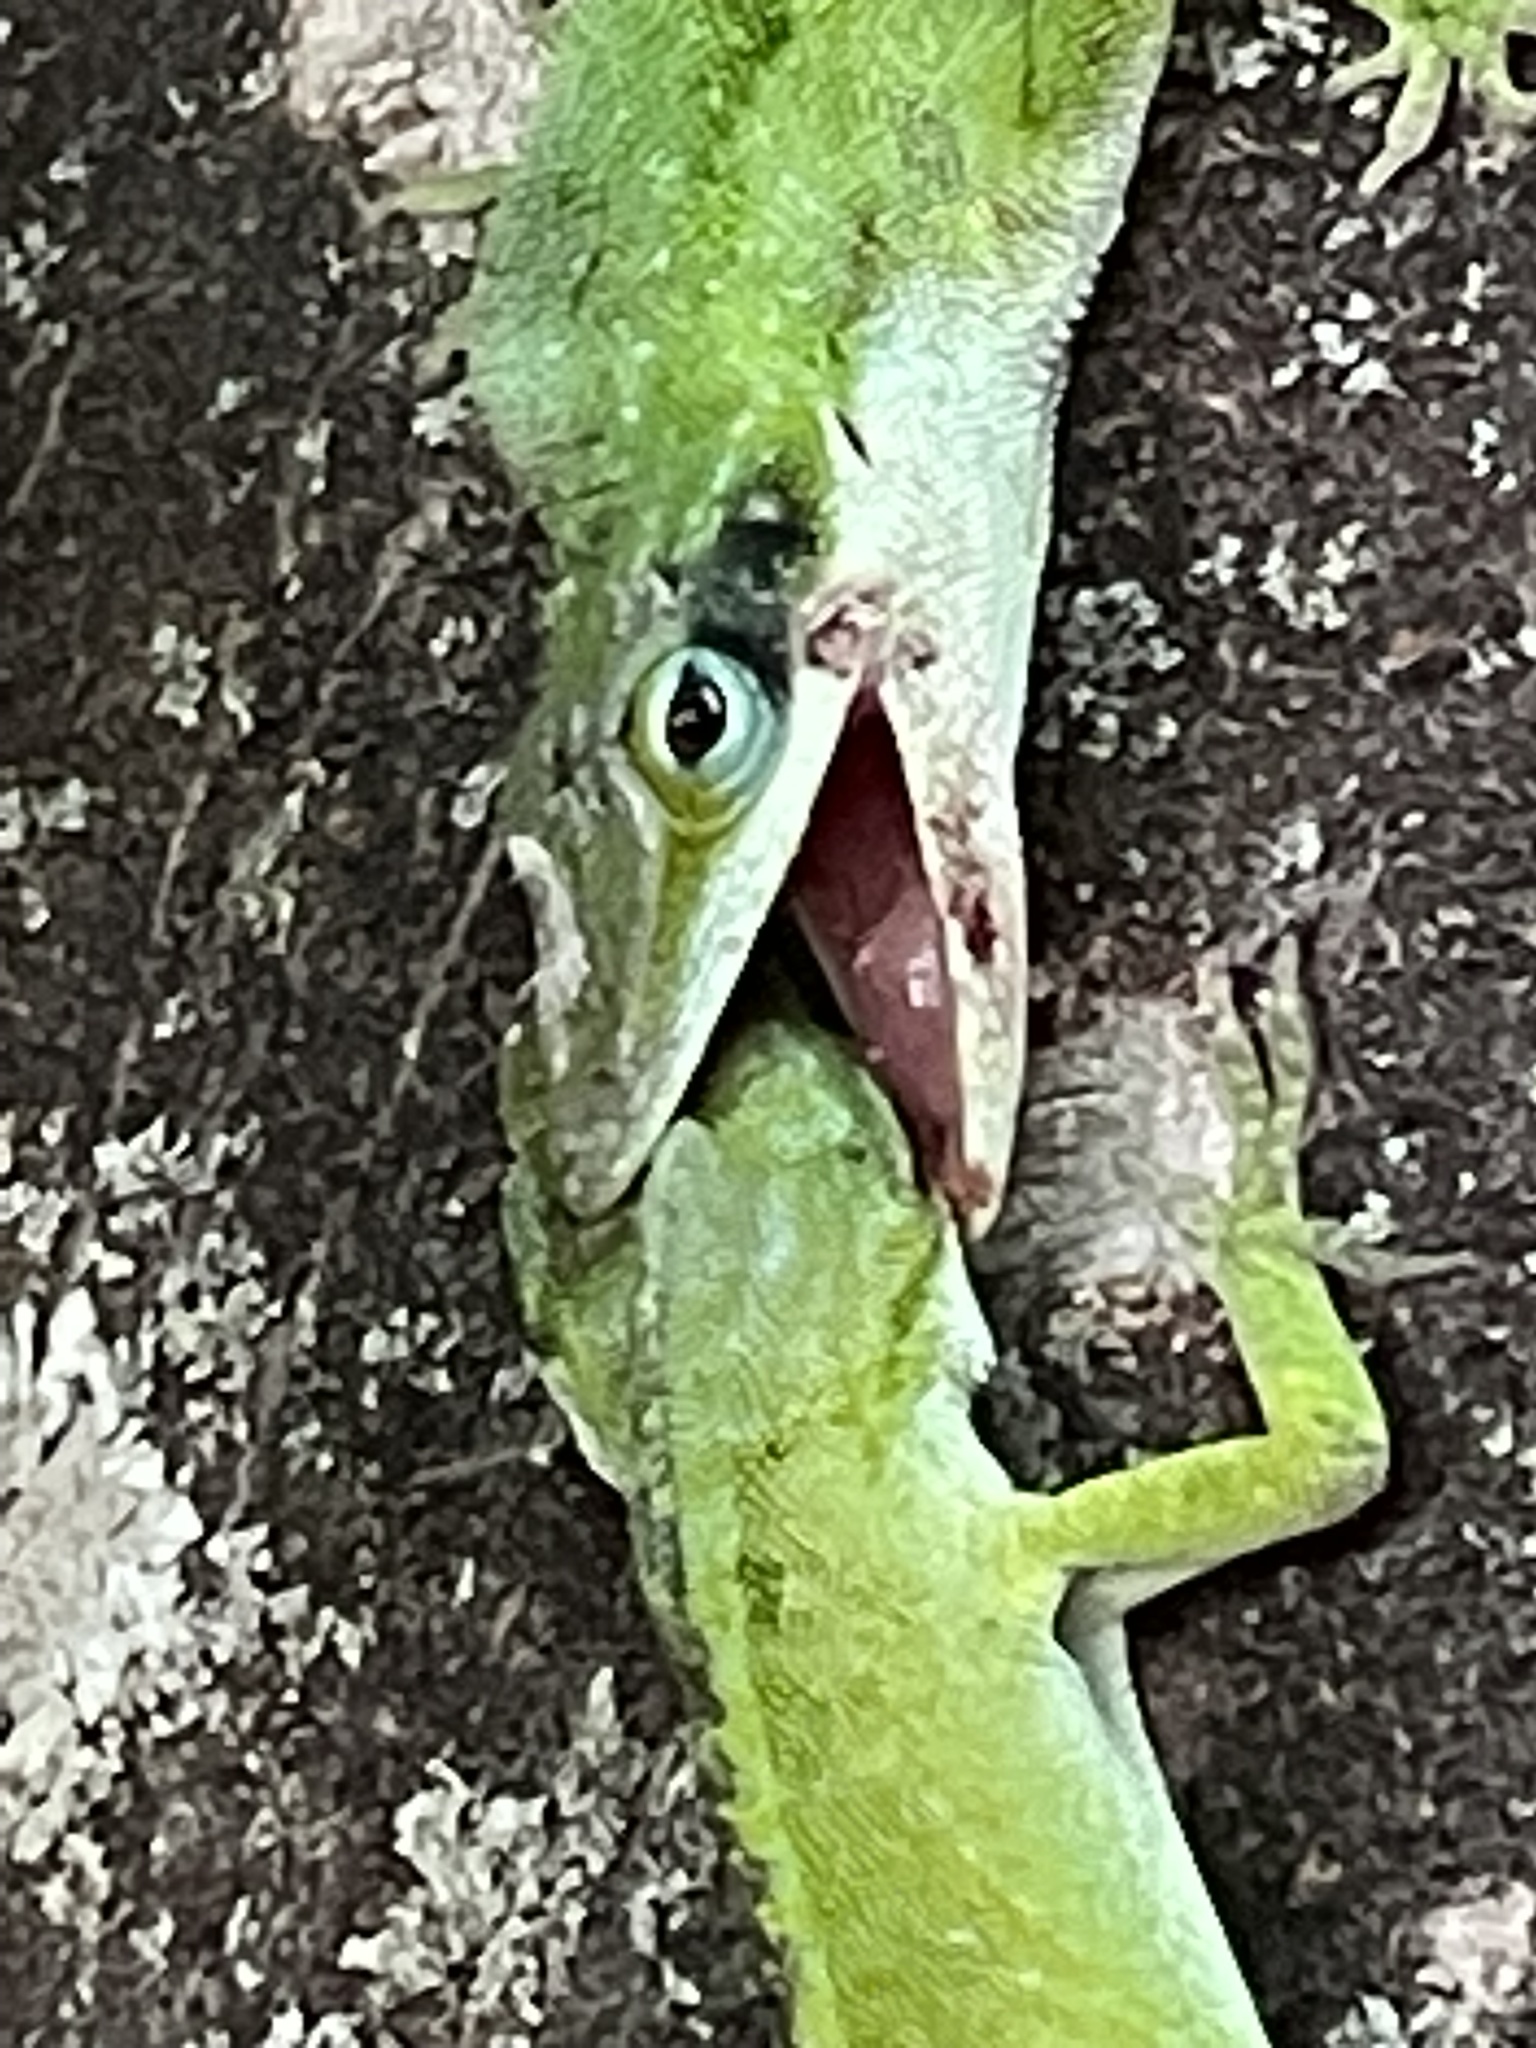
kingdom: Animalia
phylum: Chordata
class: Squamata
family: Dactyloidae
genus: Anolis
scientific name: Anolis carolinensis
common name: Green anole
